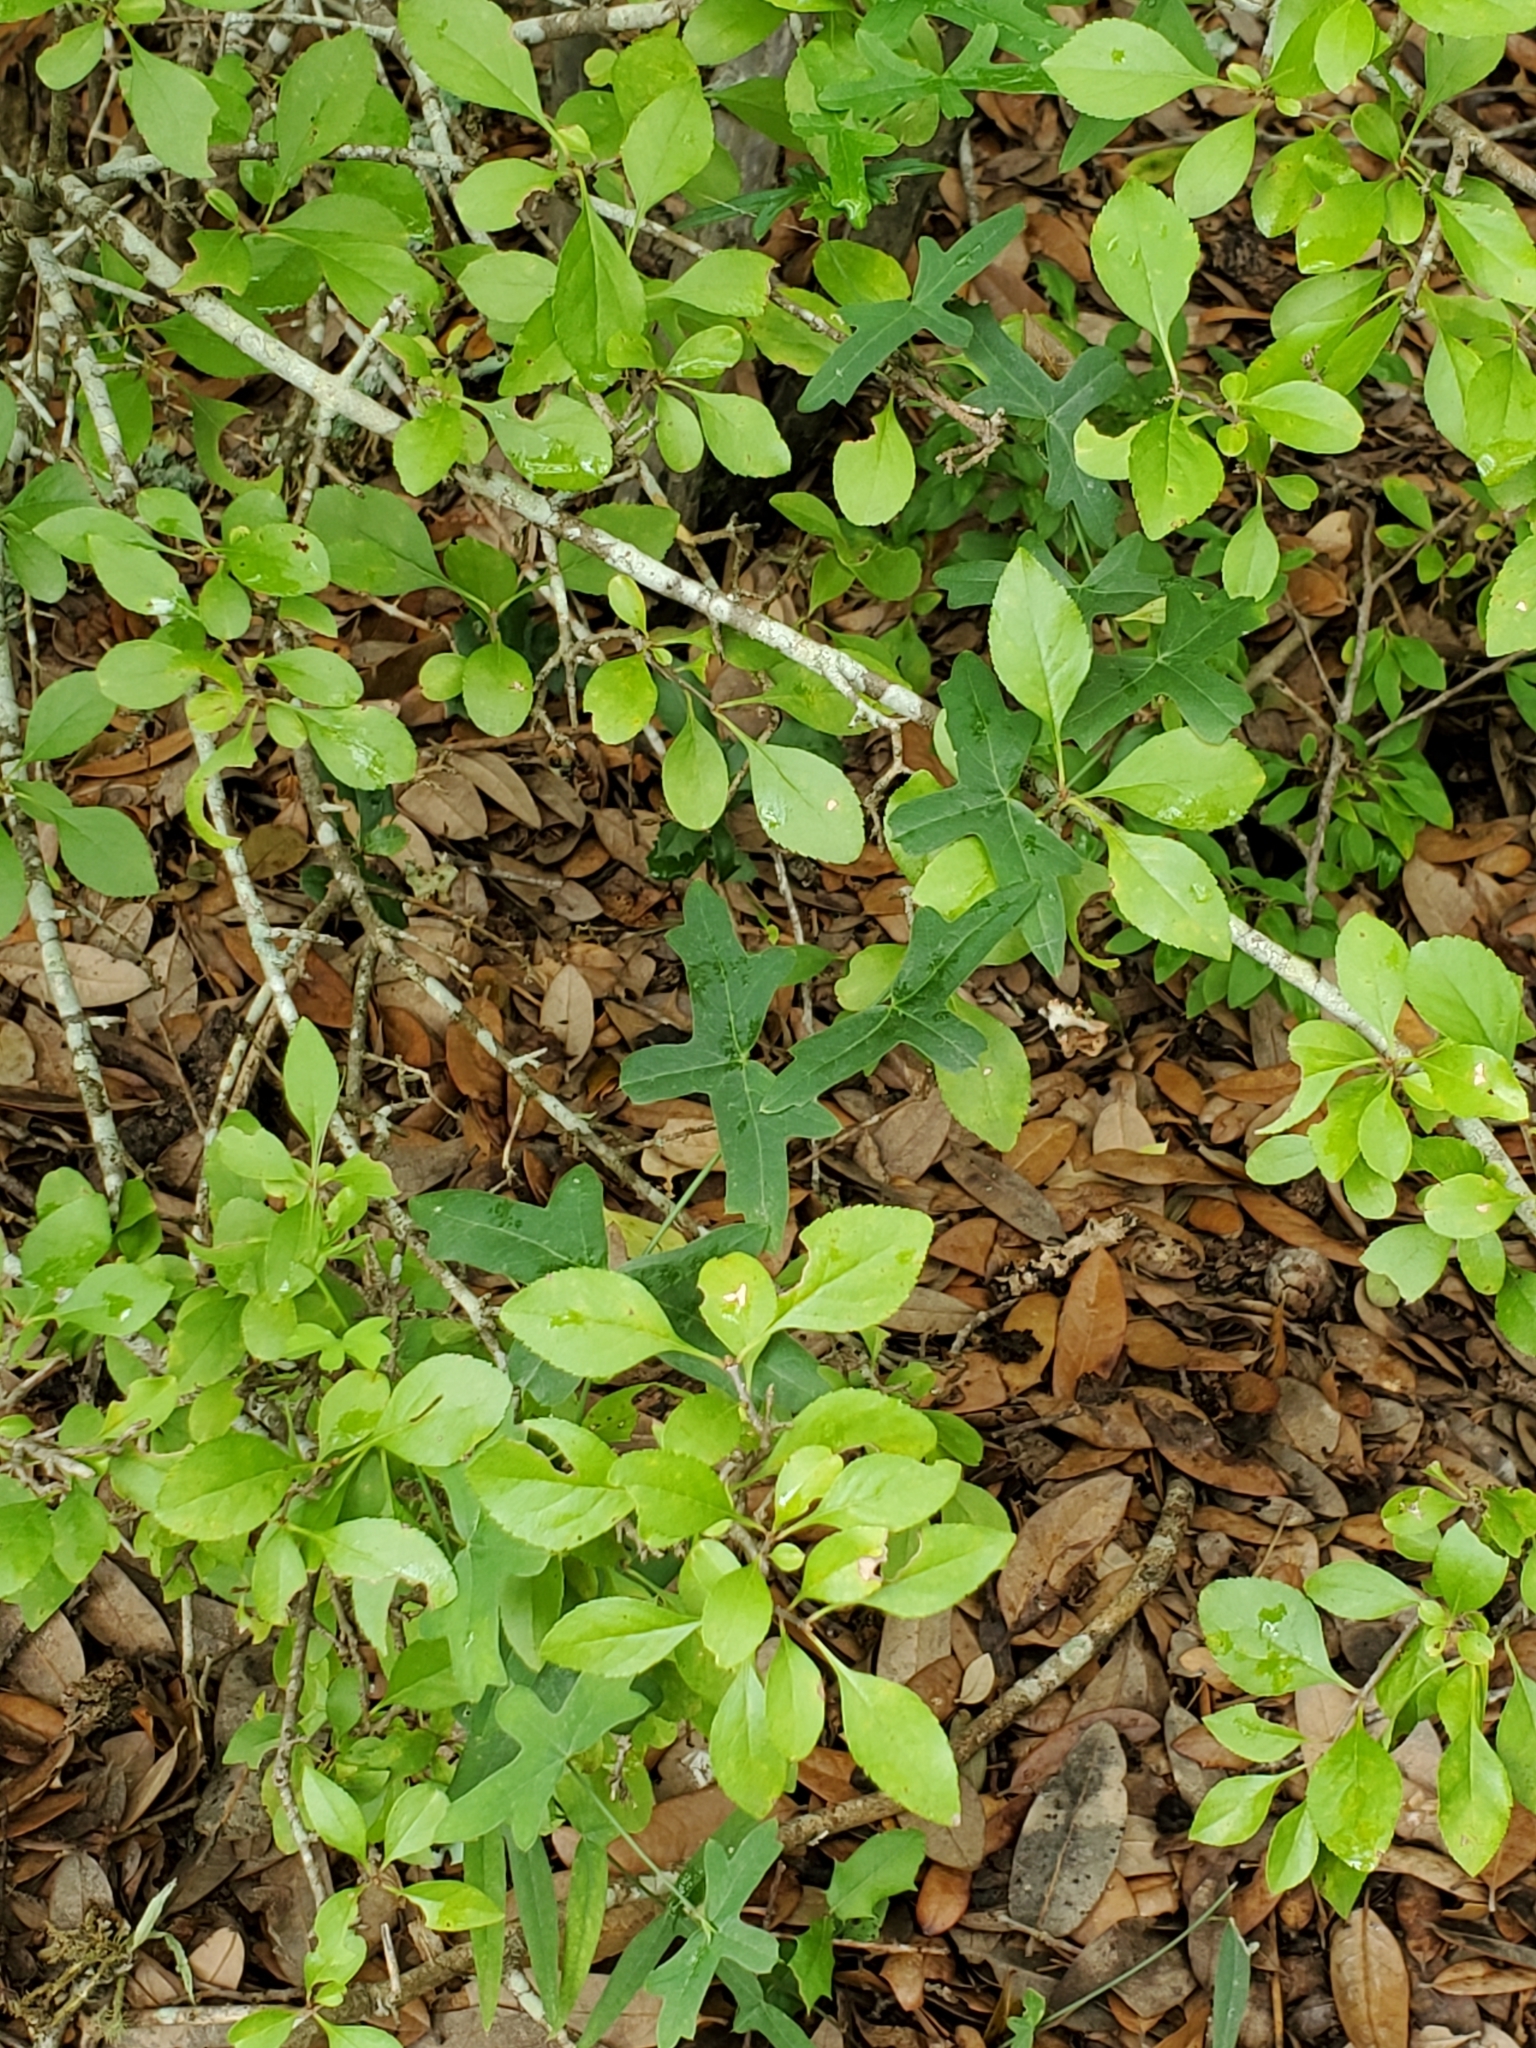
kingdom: Plantae
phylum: Tracheophyta
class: Magnoliopsida
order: Malpighiales
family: Passifloraceae
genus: Passiflora
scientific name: Passiflora tenuiloba
